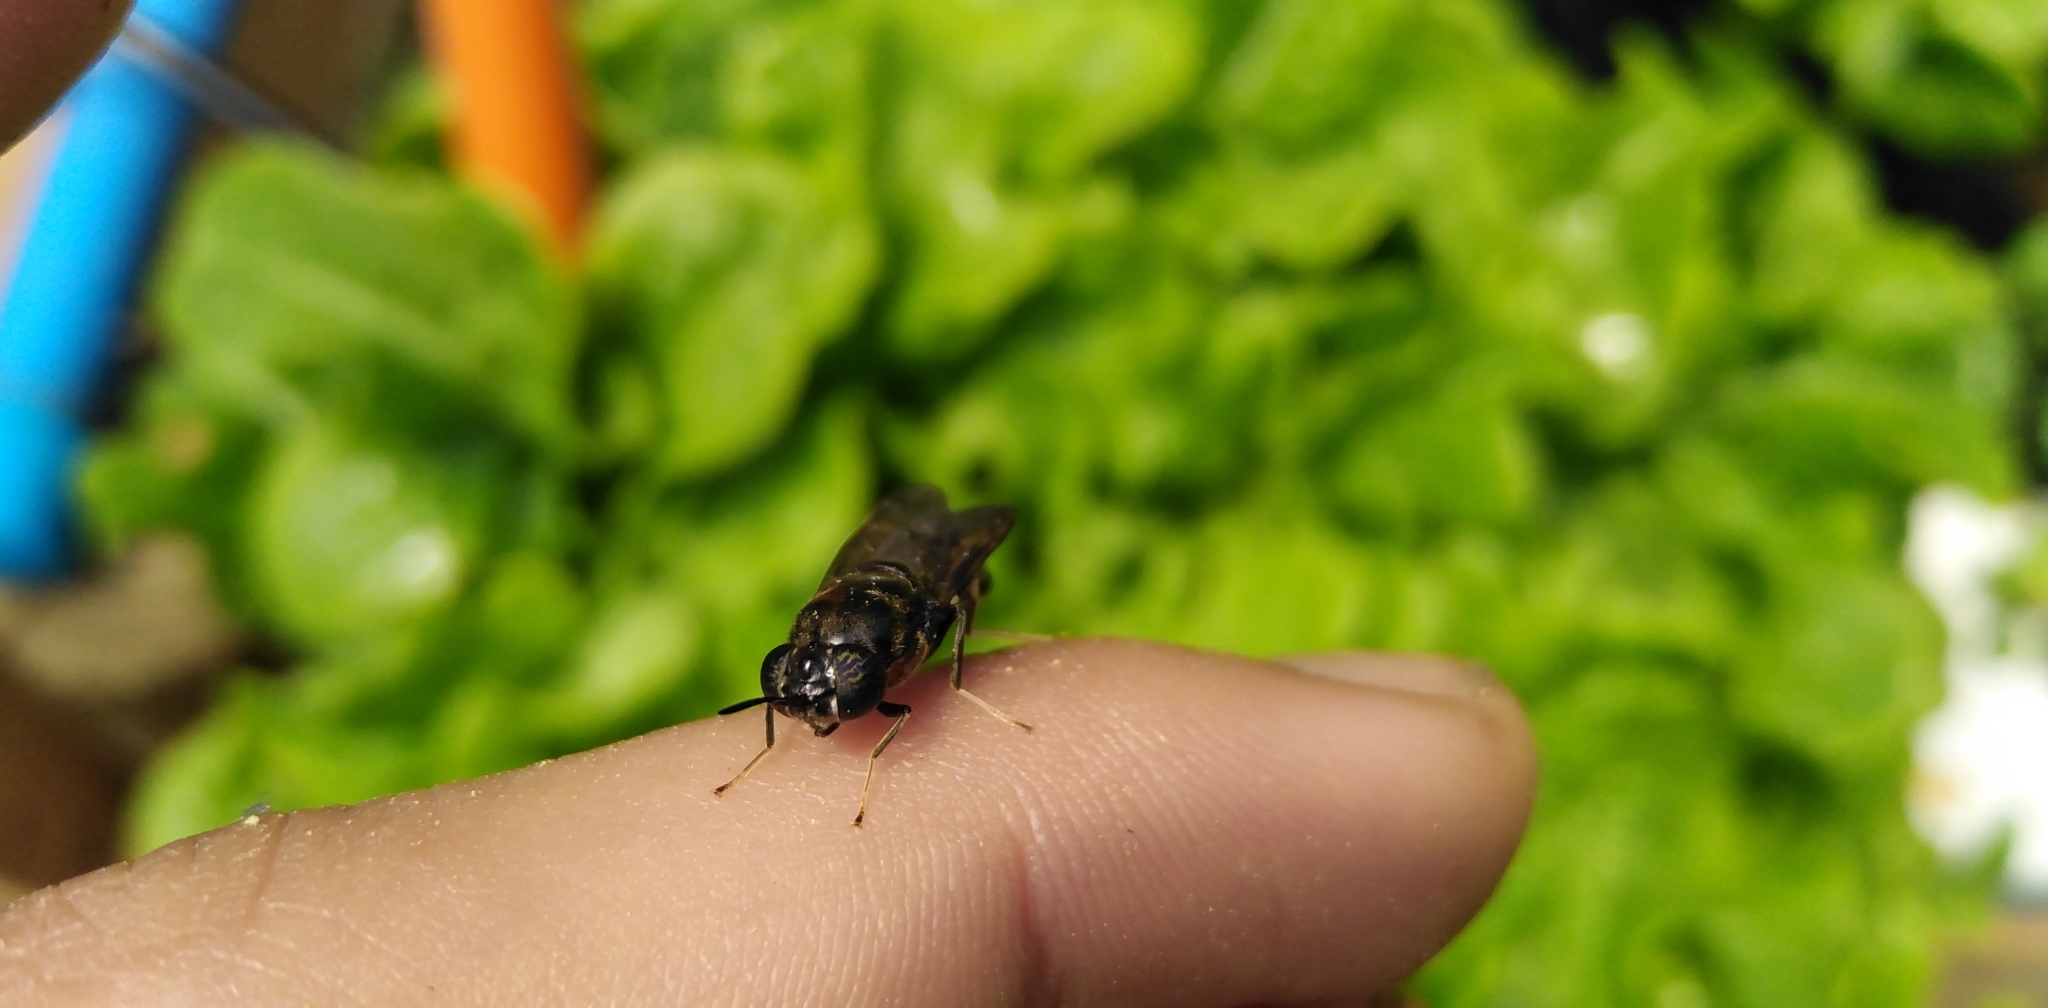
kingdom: Animalia
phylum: Arthropoda
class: Insecta
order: Diptera
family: Stratiomyidae
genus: Hermetia
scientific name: Hermetia illucens
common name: Black soldier fly
